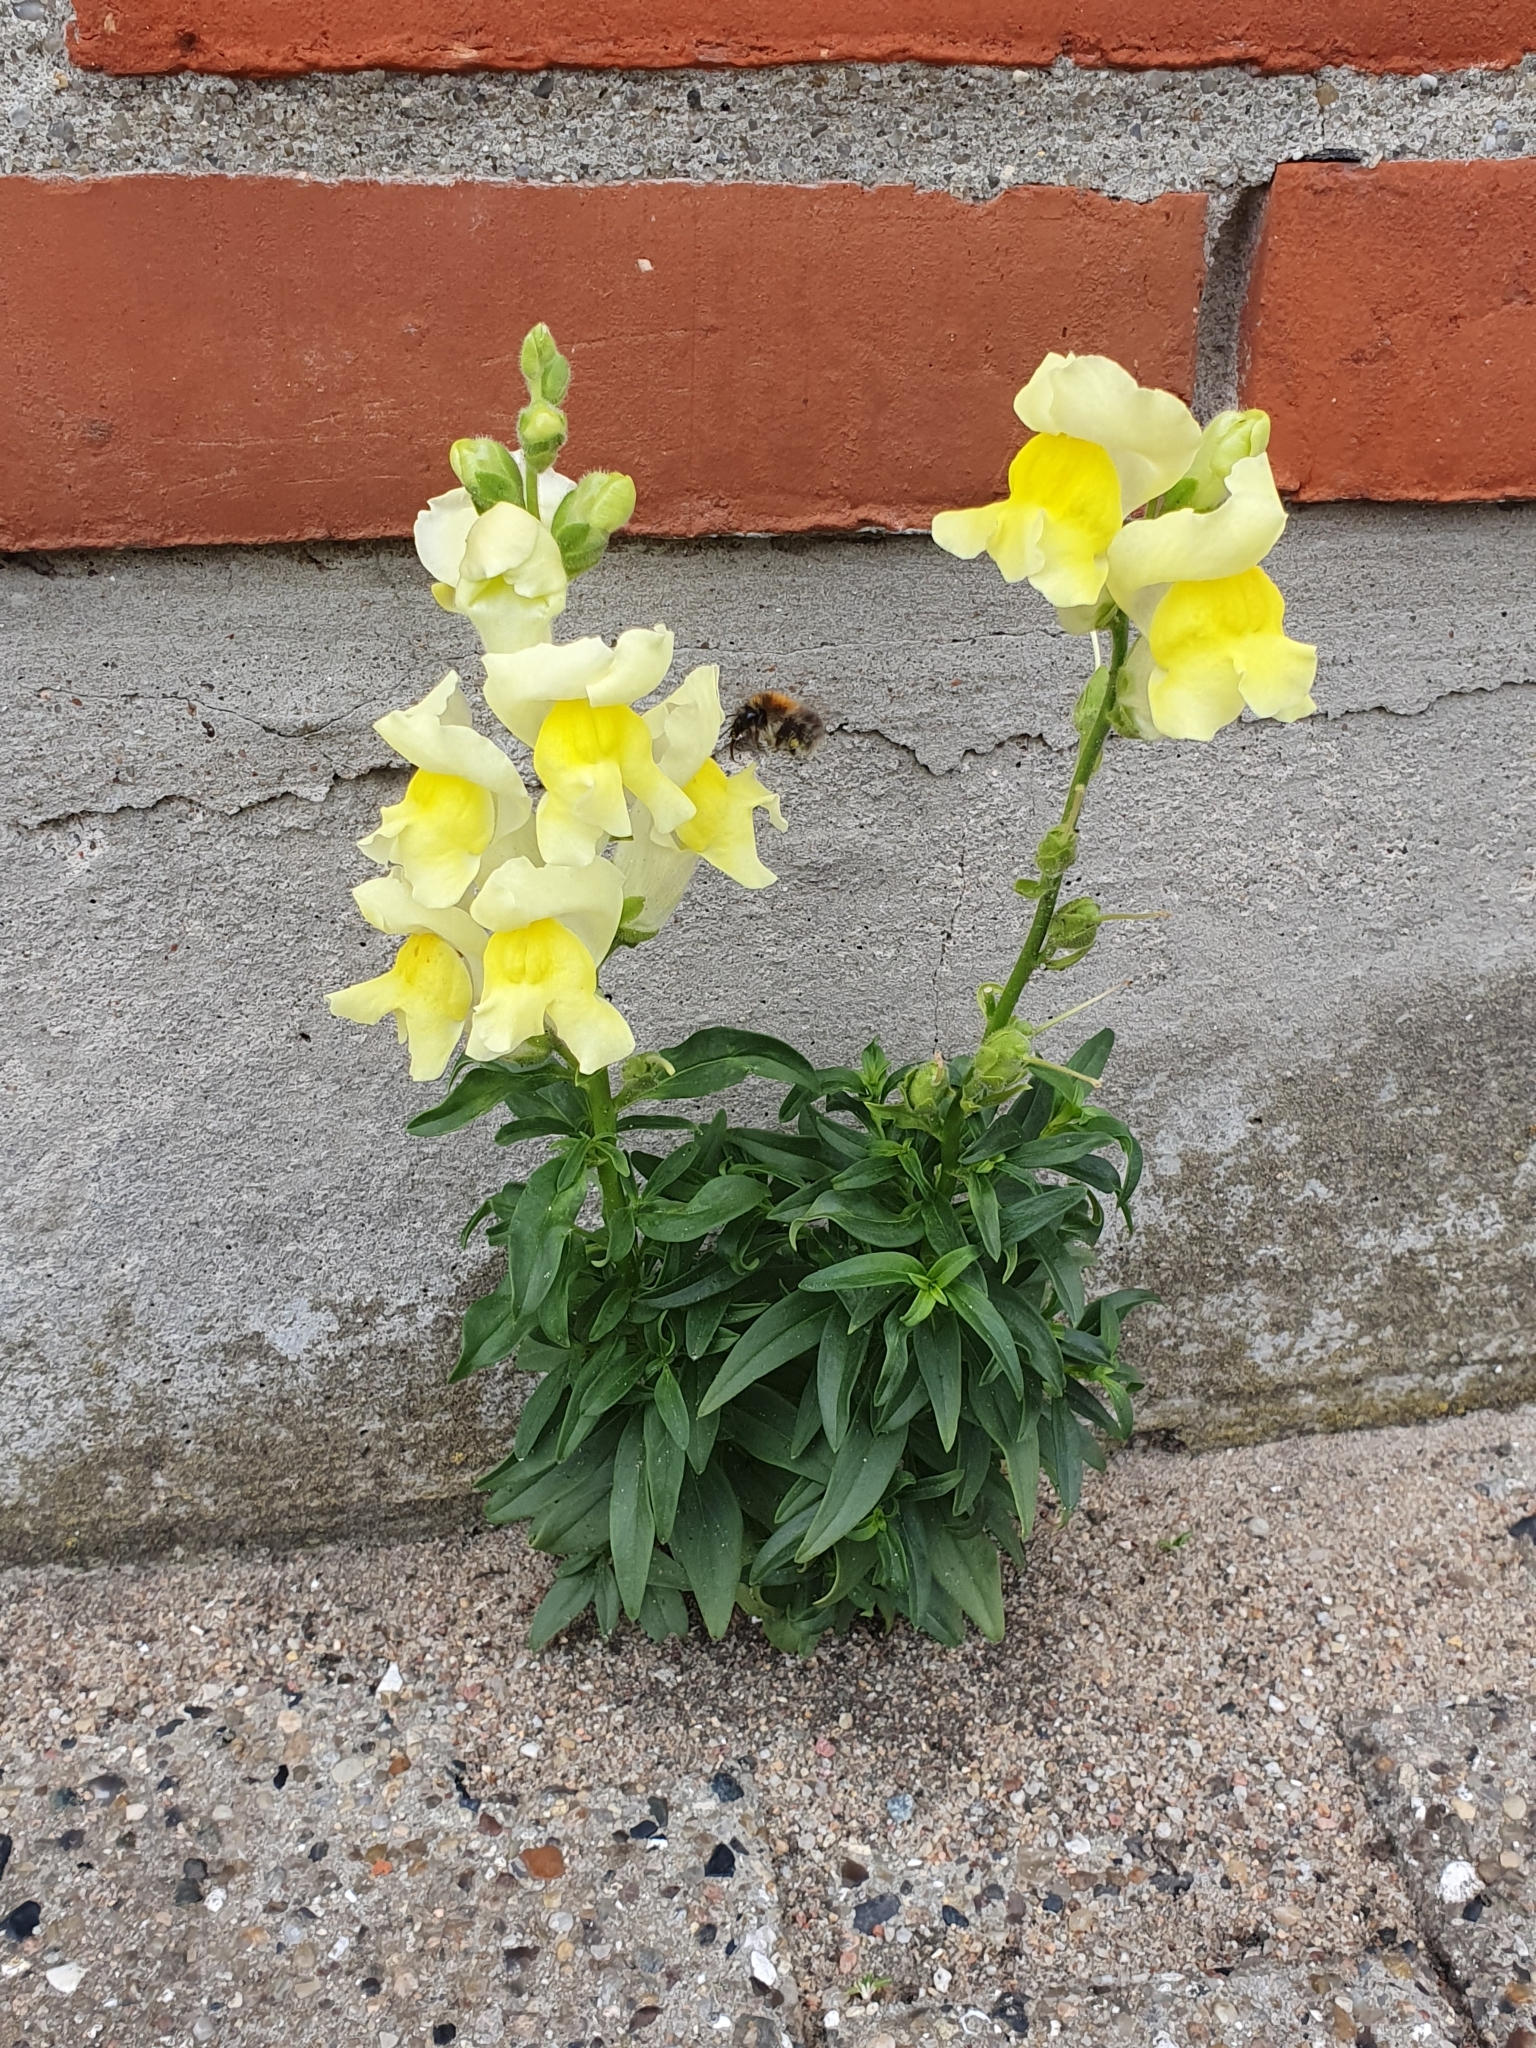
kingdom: Plantae
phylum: Tracheophyta
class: Magnoliopsida
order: Lamiales
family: Plantaginaceae
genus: Antirrhinum
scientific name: Antirrhinum majus
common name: Snapdragon
